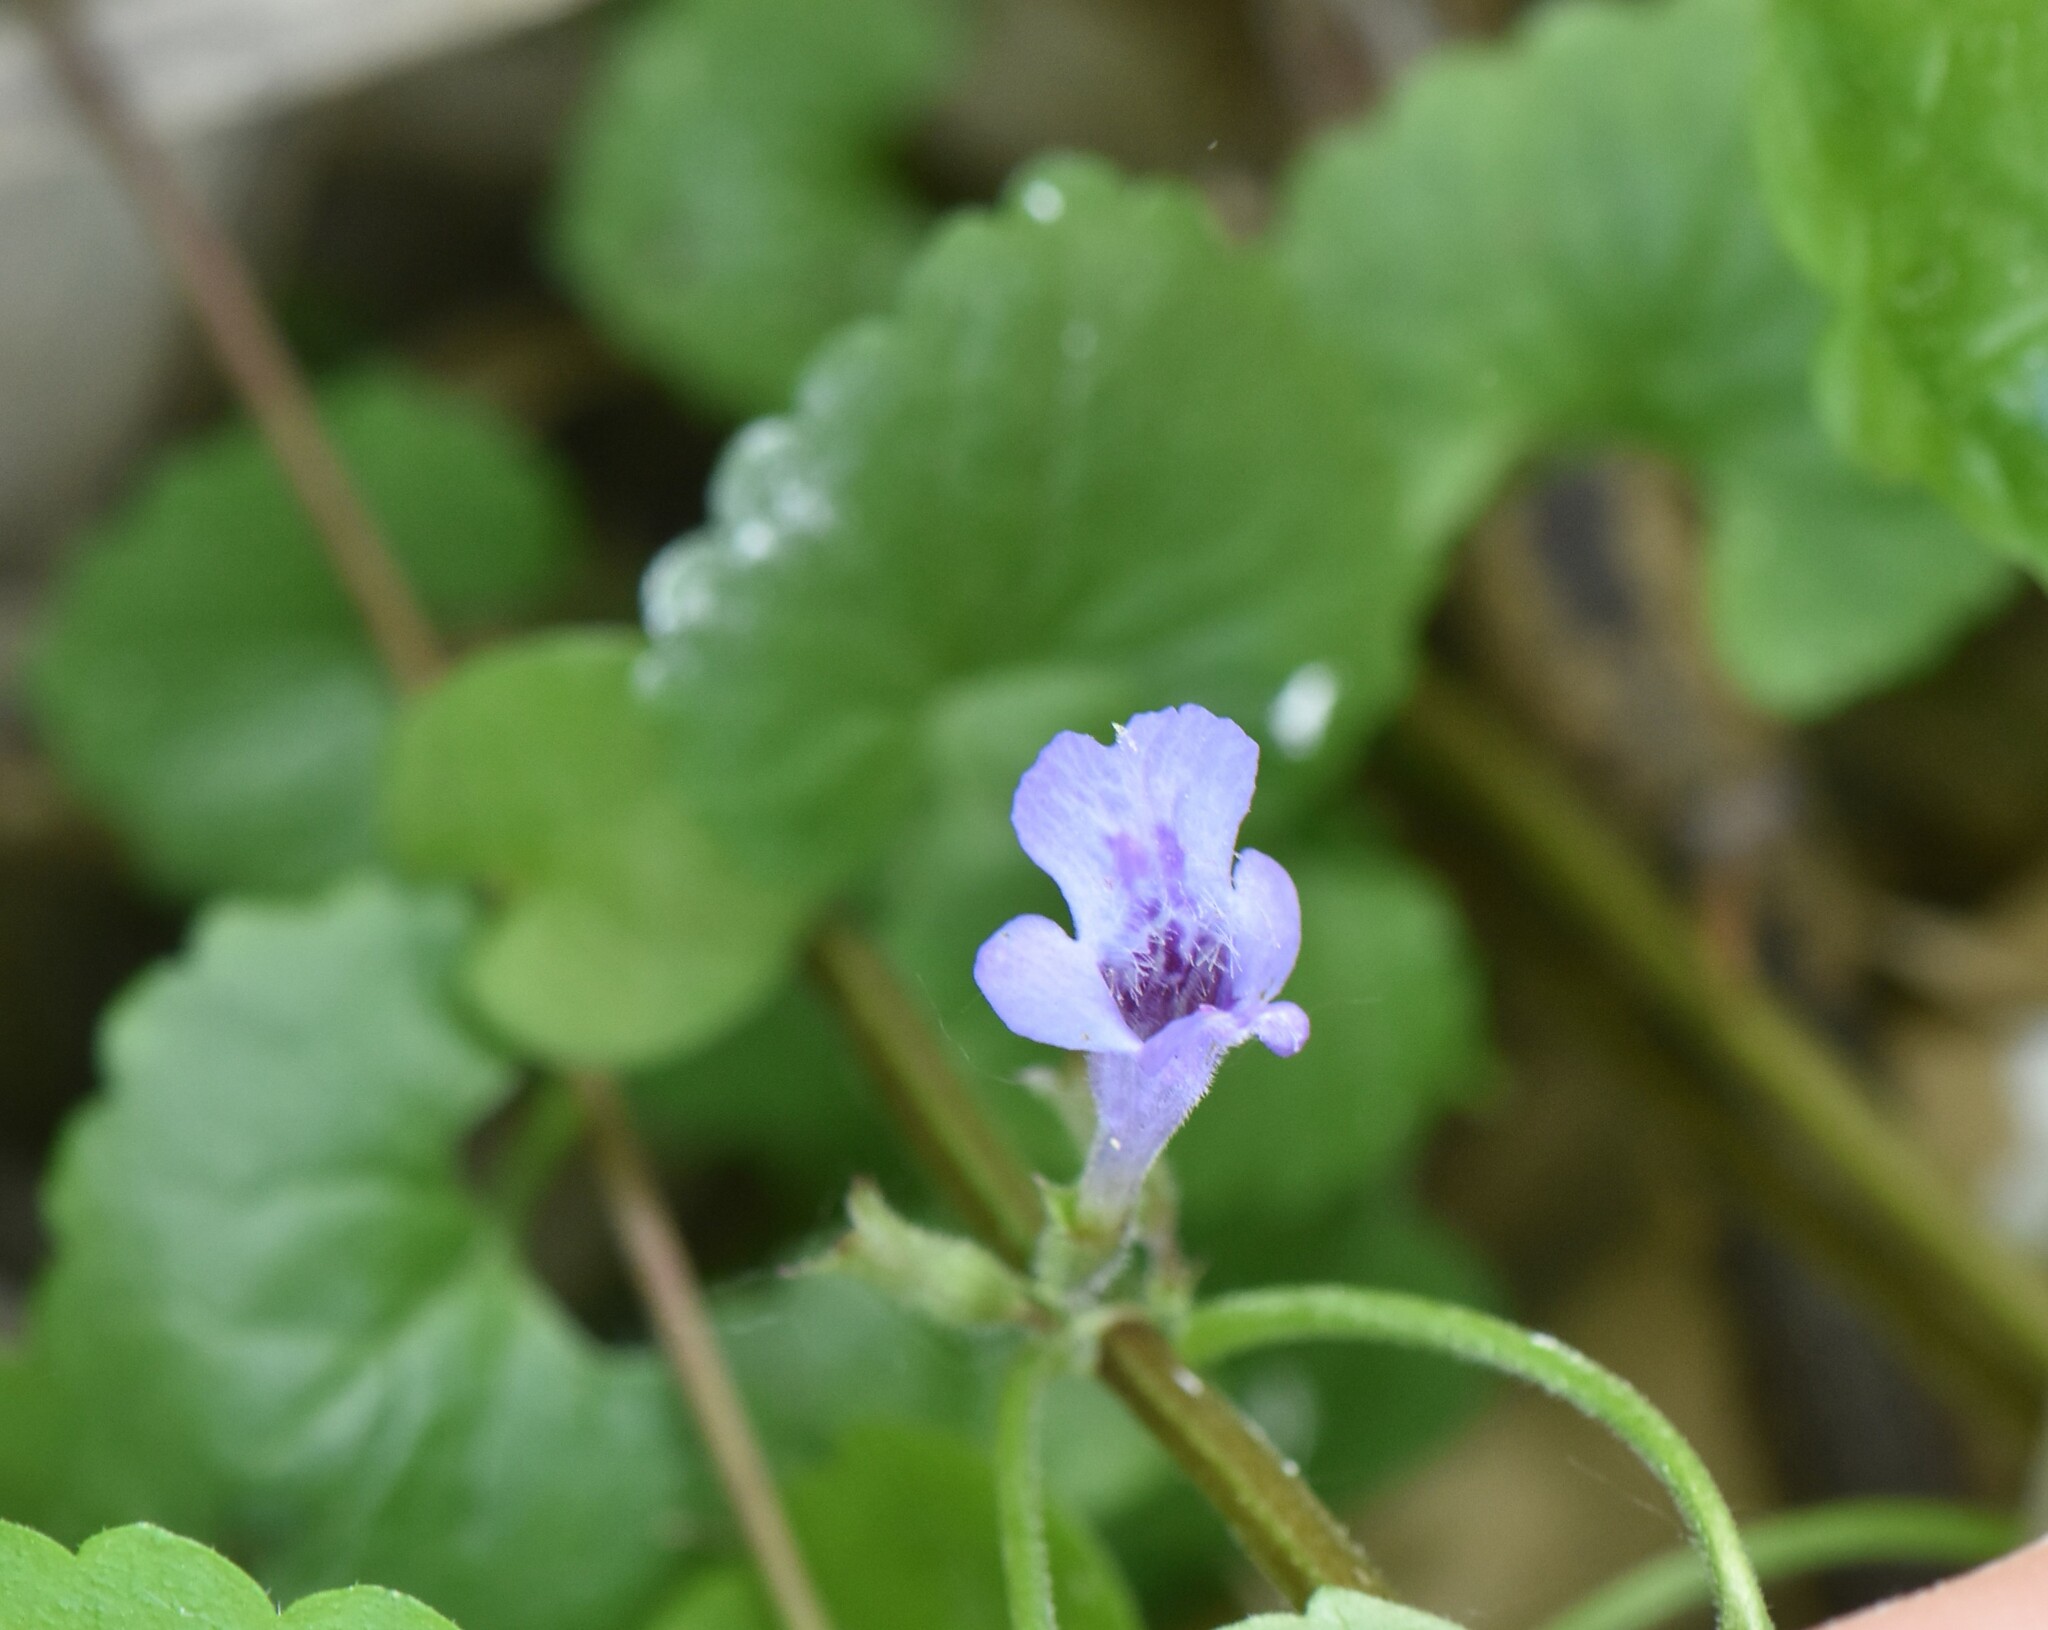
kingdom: Plantae
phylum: Tracheophyta
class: Magnoliopsida
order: Lamiales
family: Lamiaceae
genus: Glechoma
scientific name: Glechoma hederacea
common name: Ground ivy
